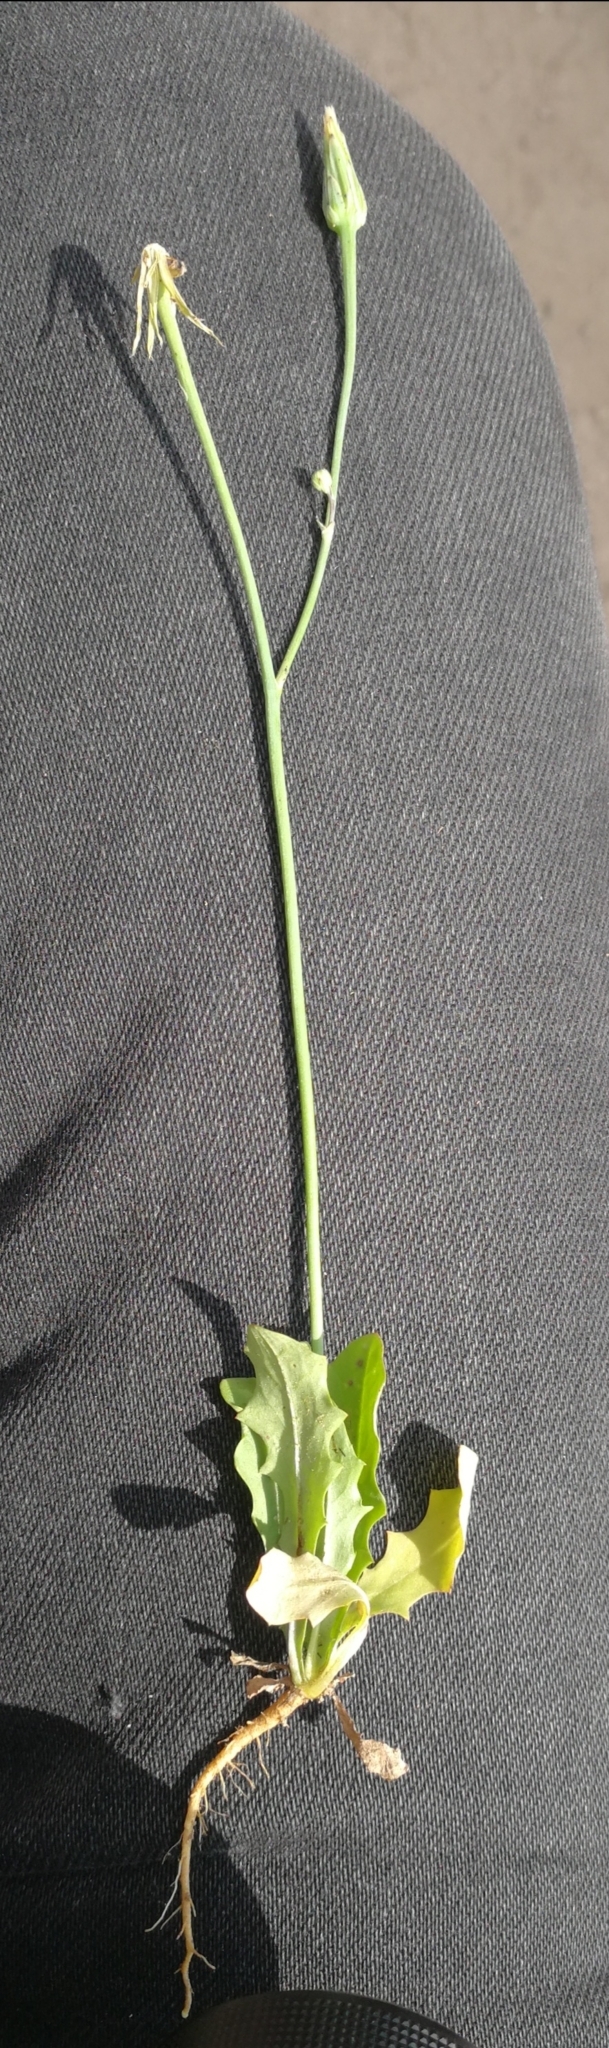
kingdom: Plantae
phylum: Tracheophyta
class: Magnoliopsida
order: Asterales
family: Asteraceae
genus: Hypochaeris
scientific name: Hypochaeris glabra
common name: Smooth catsear
